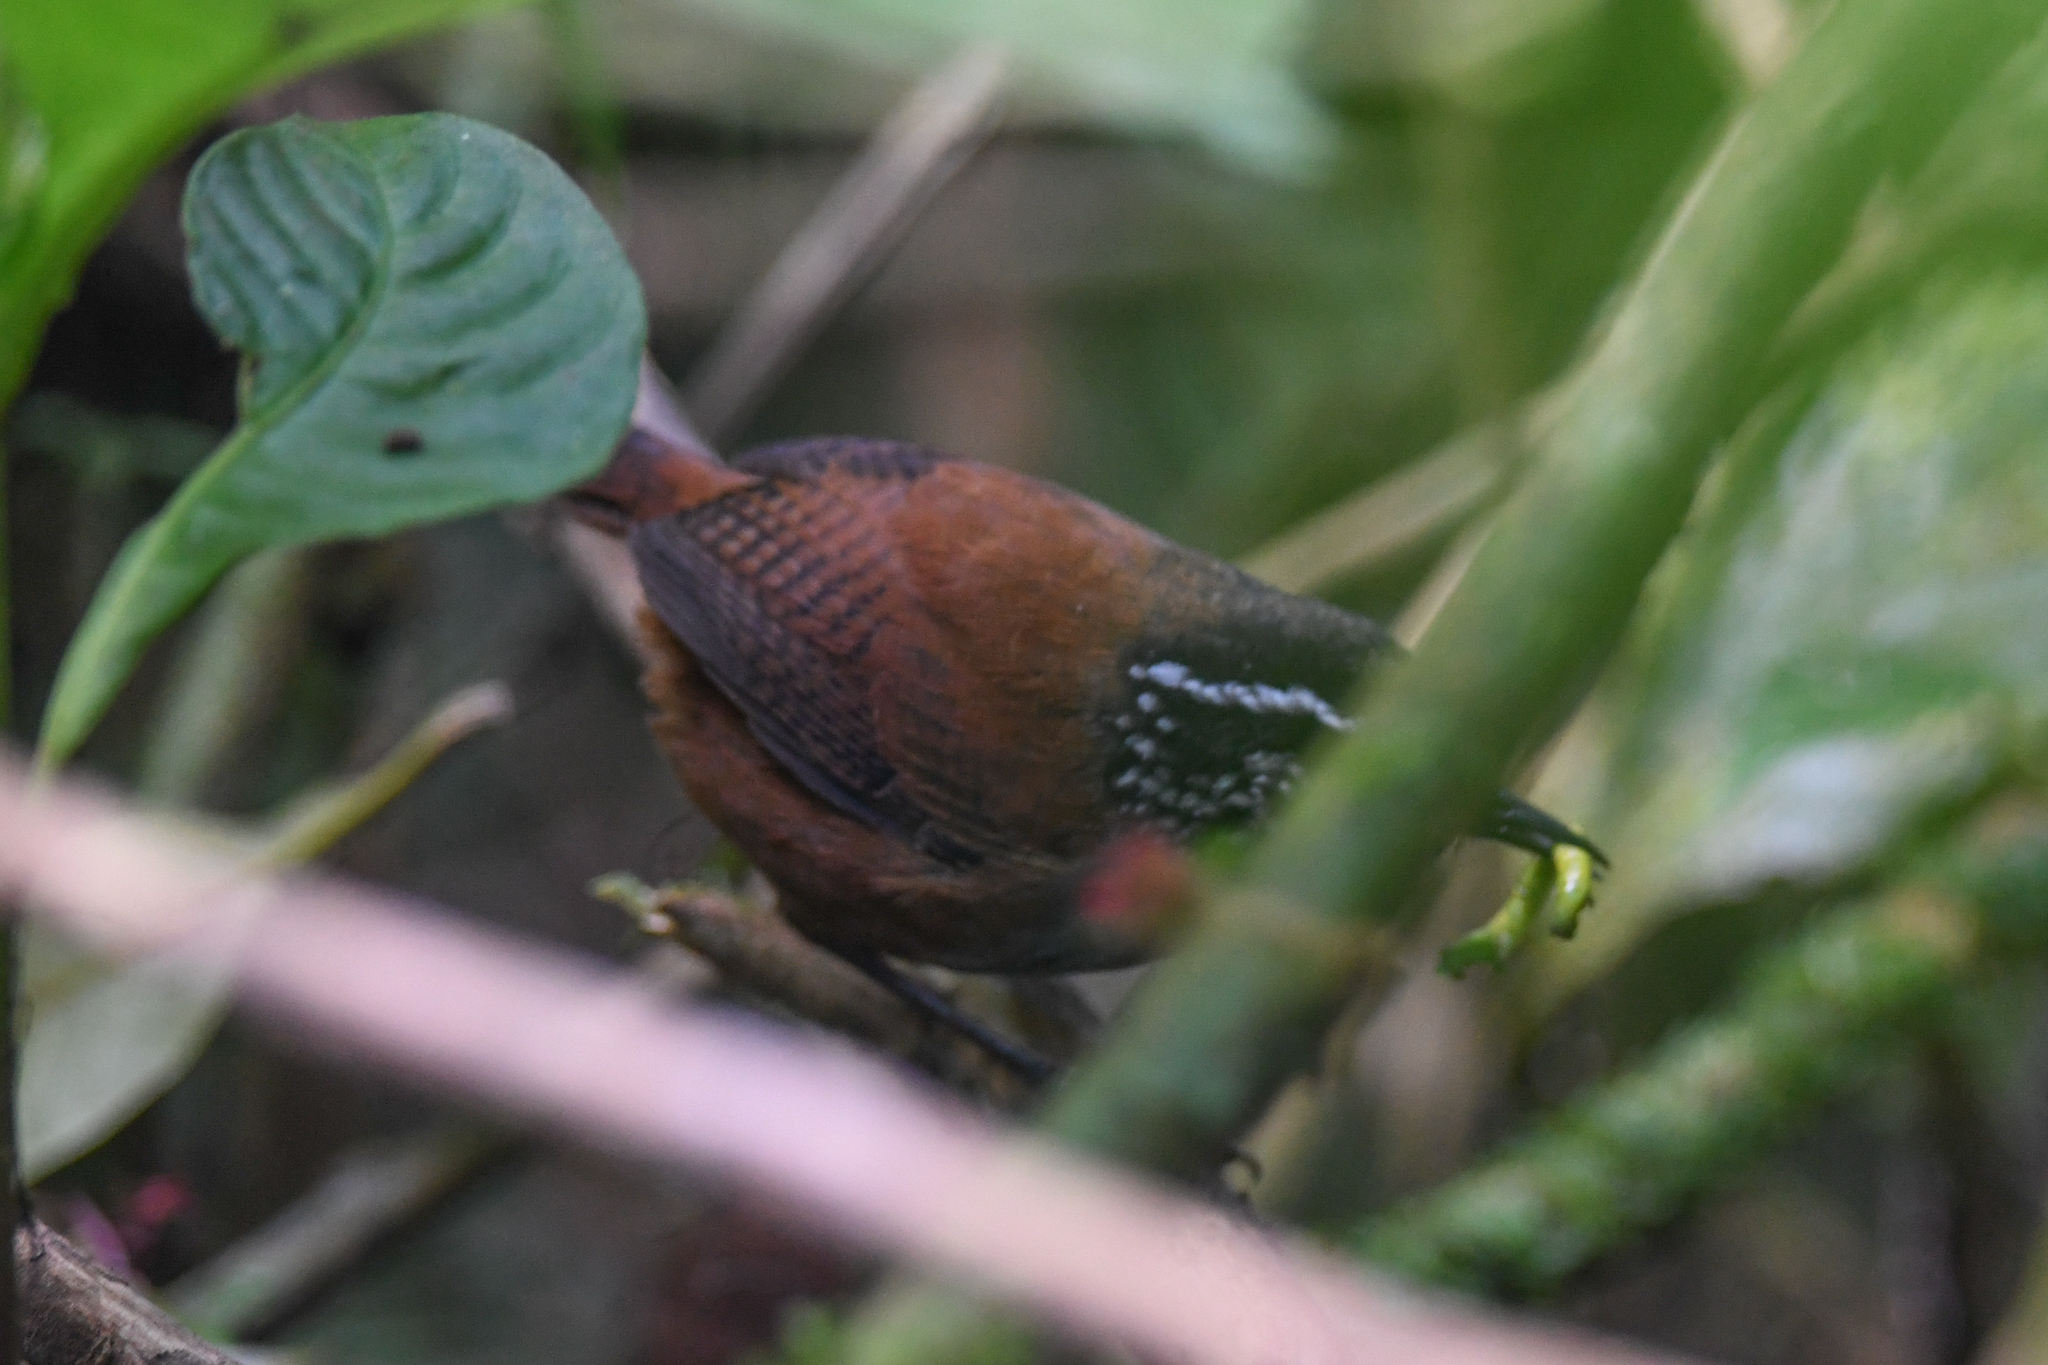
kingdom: Animalia
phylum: Chordata
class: Aves
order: Passeriformes
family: Troglodytidae
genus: Henicorhina
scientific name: Henicorhina leucophrys
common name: Gray-breasted wood-wren
